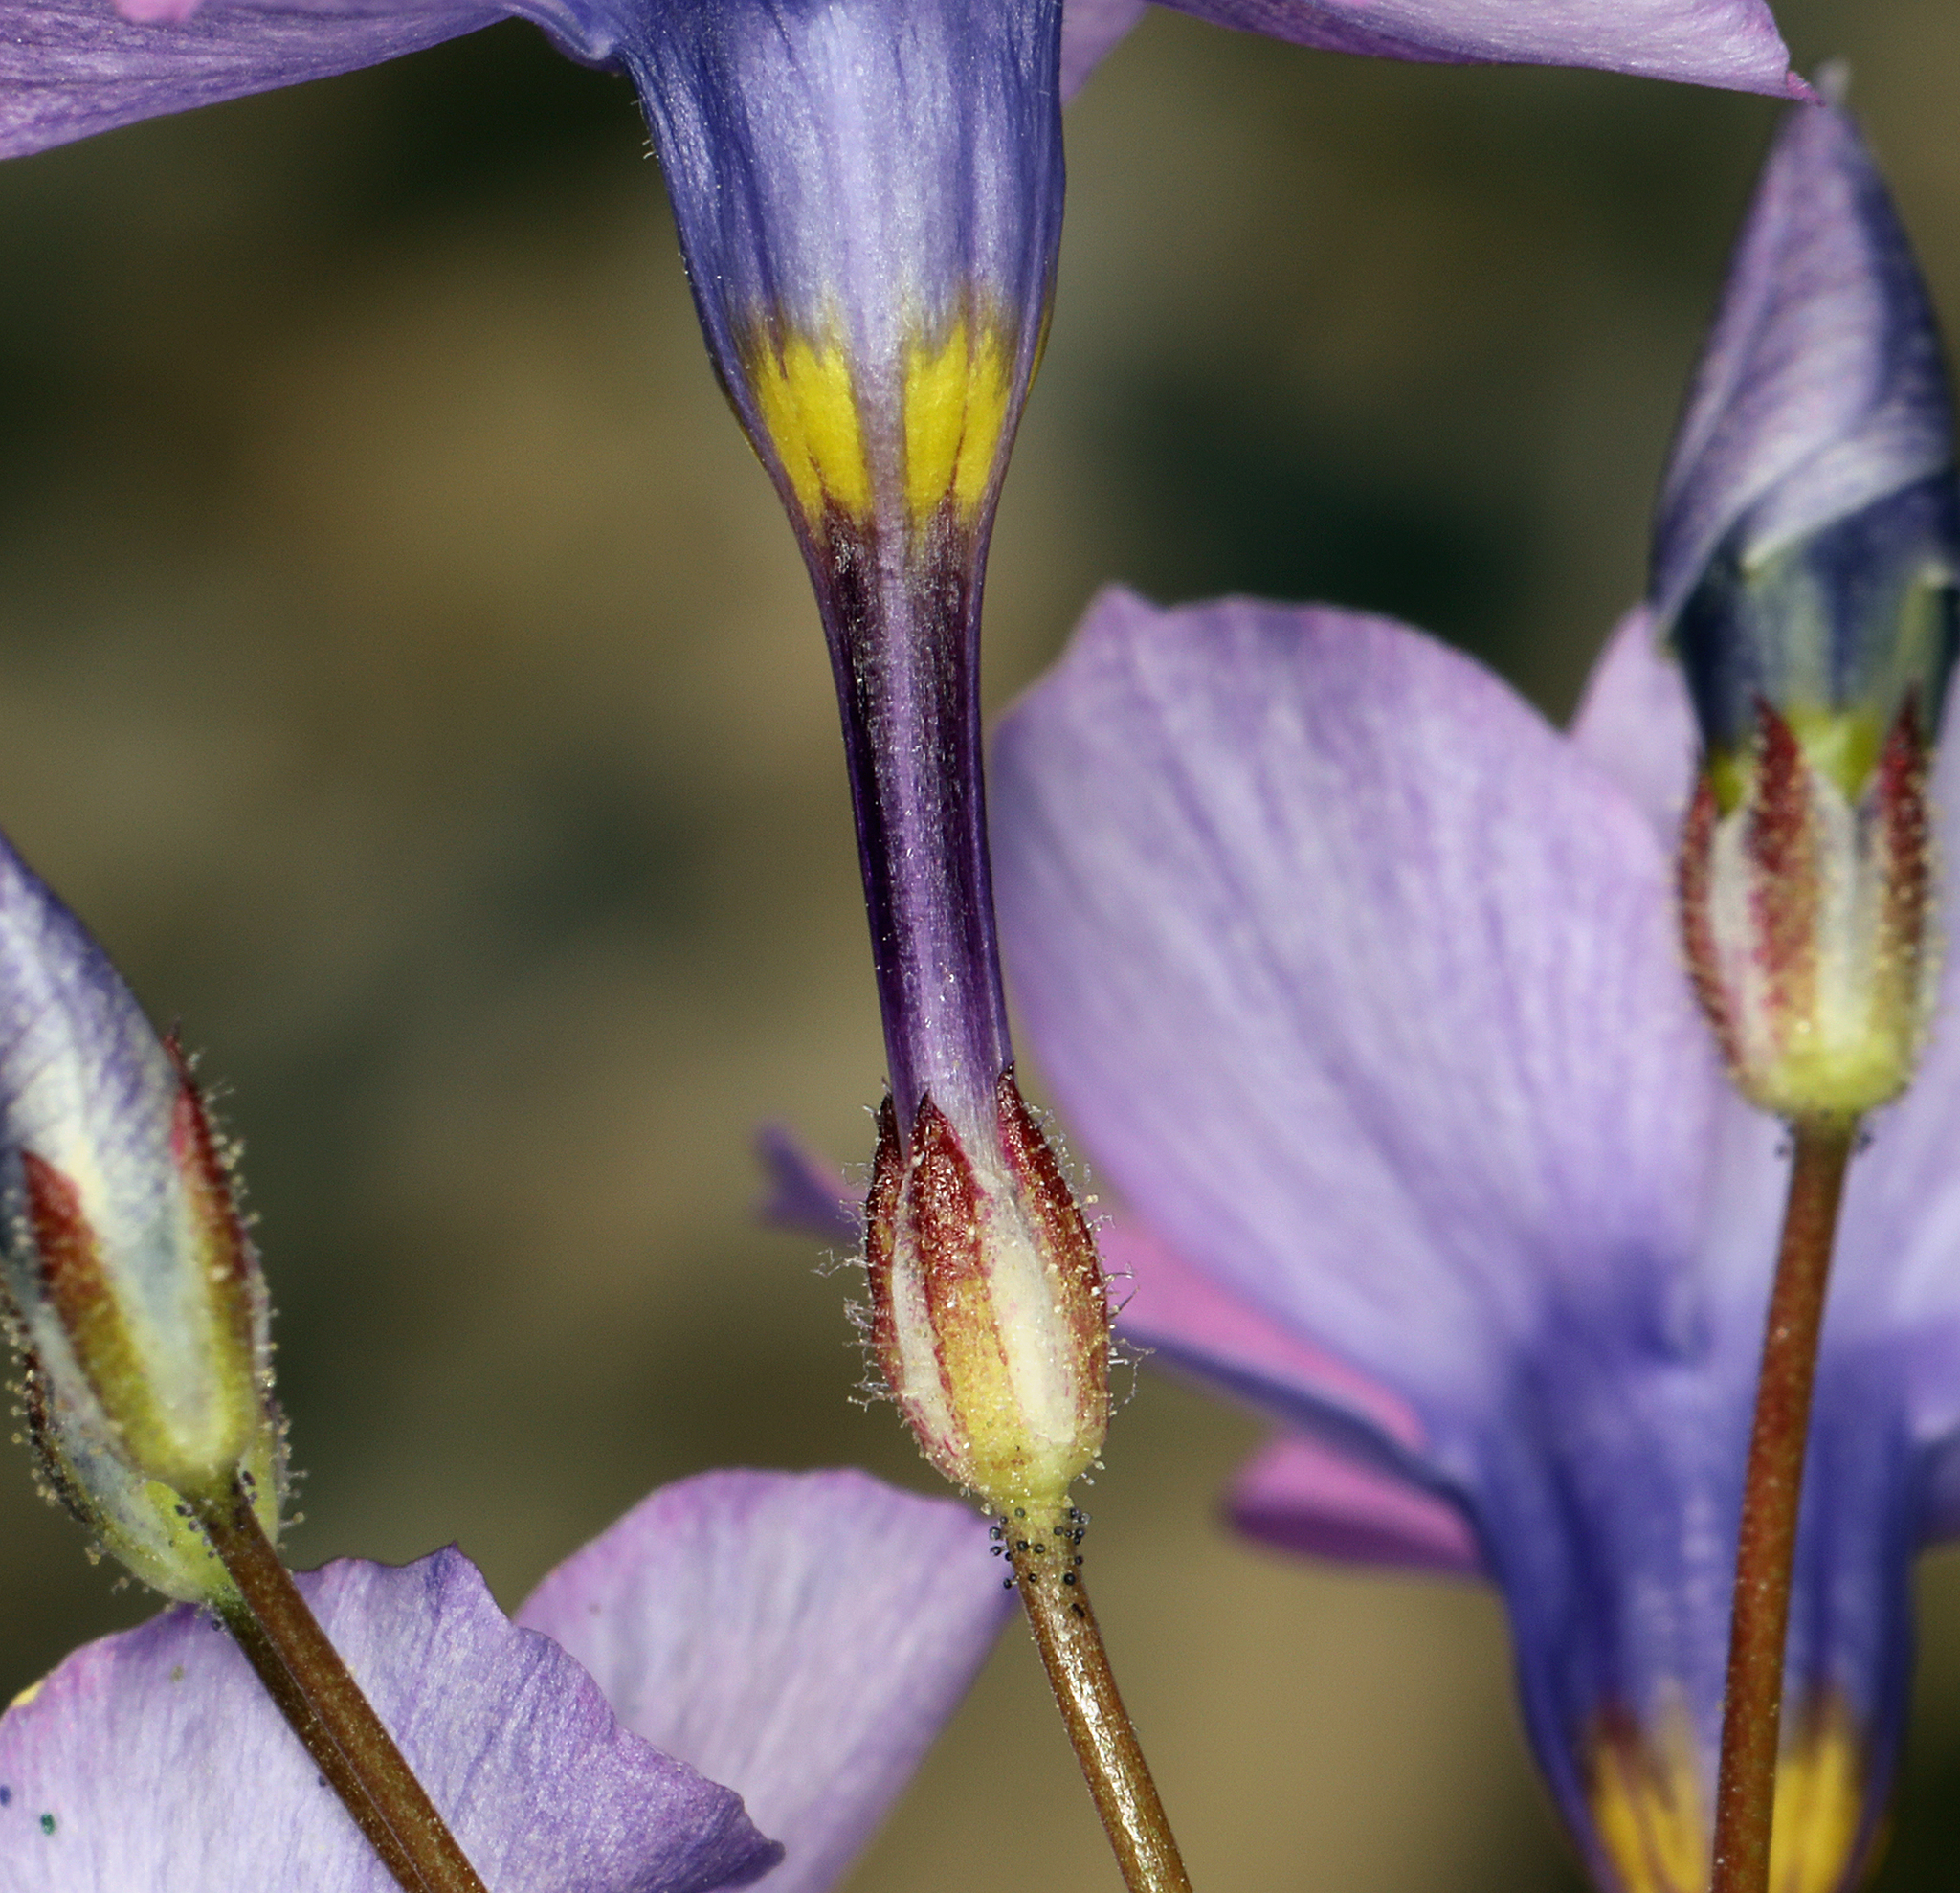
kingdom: Plantae
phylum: Tracheophyta
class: Magnoliopsida
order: Ericales
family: Polemoniaceae
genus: Gilia
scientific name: Gilia cana
